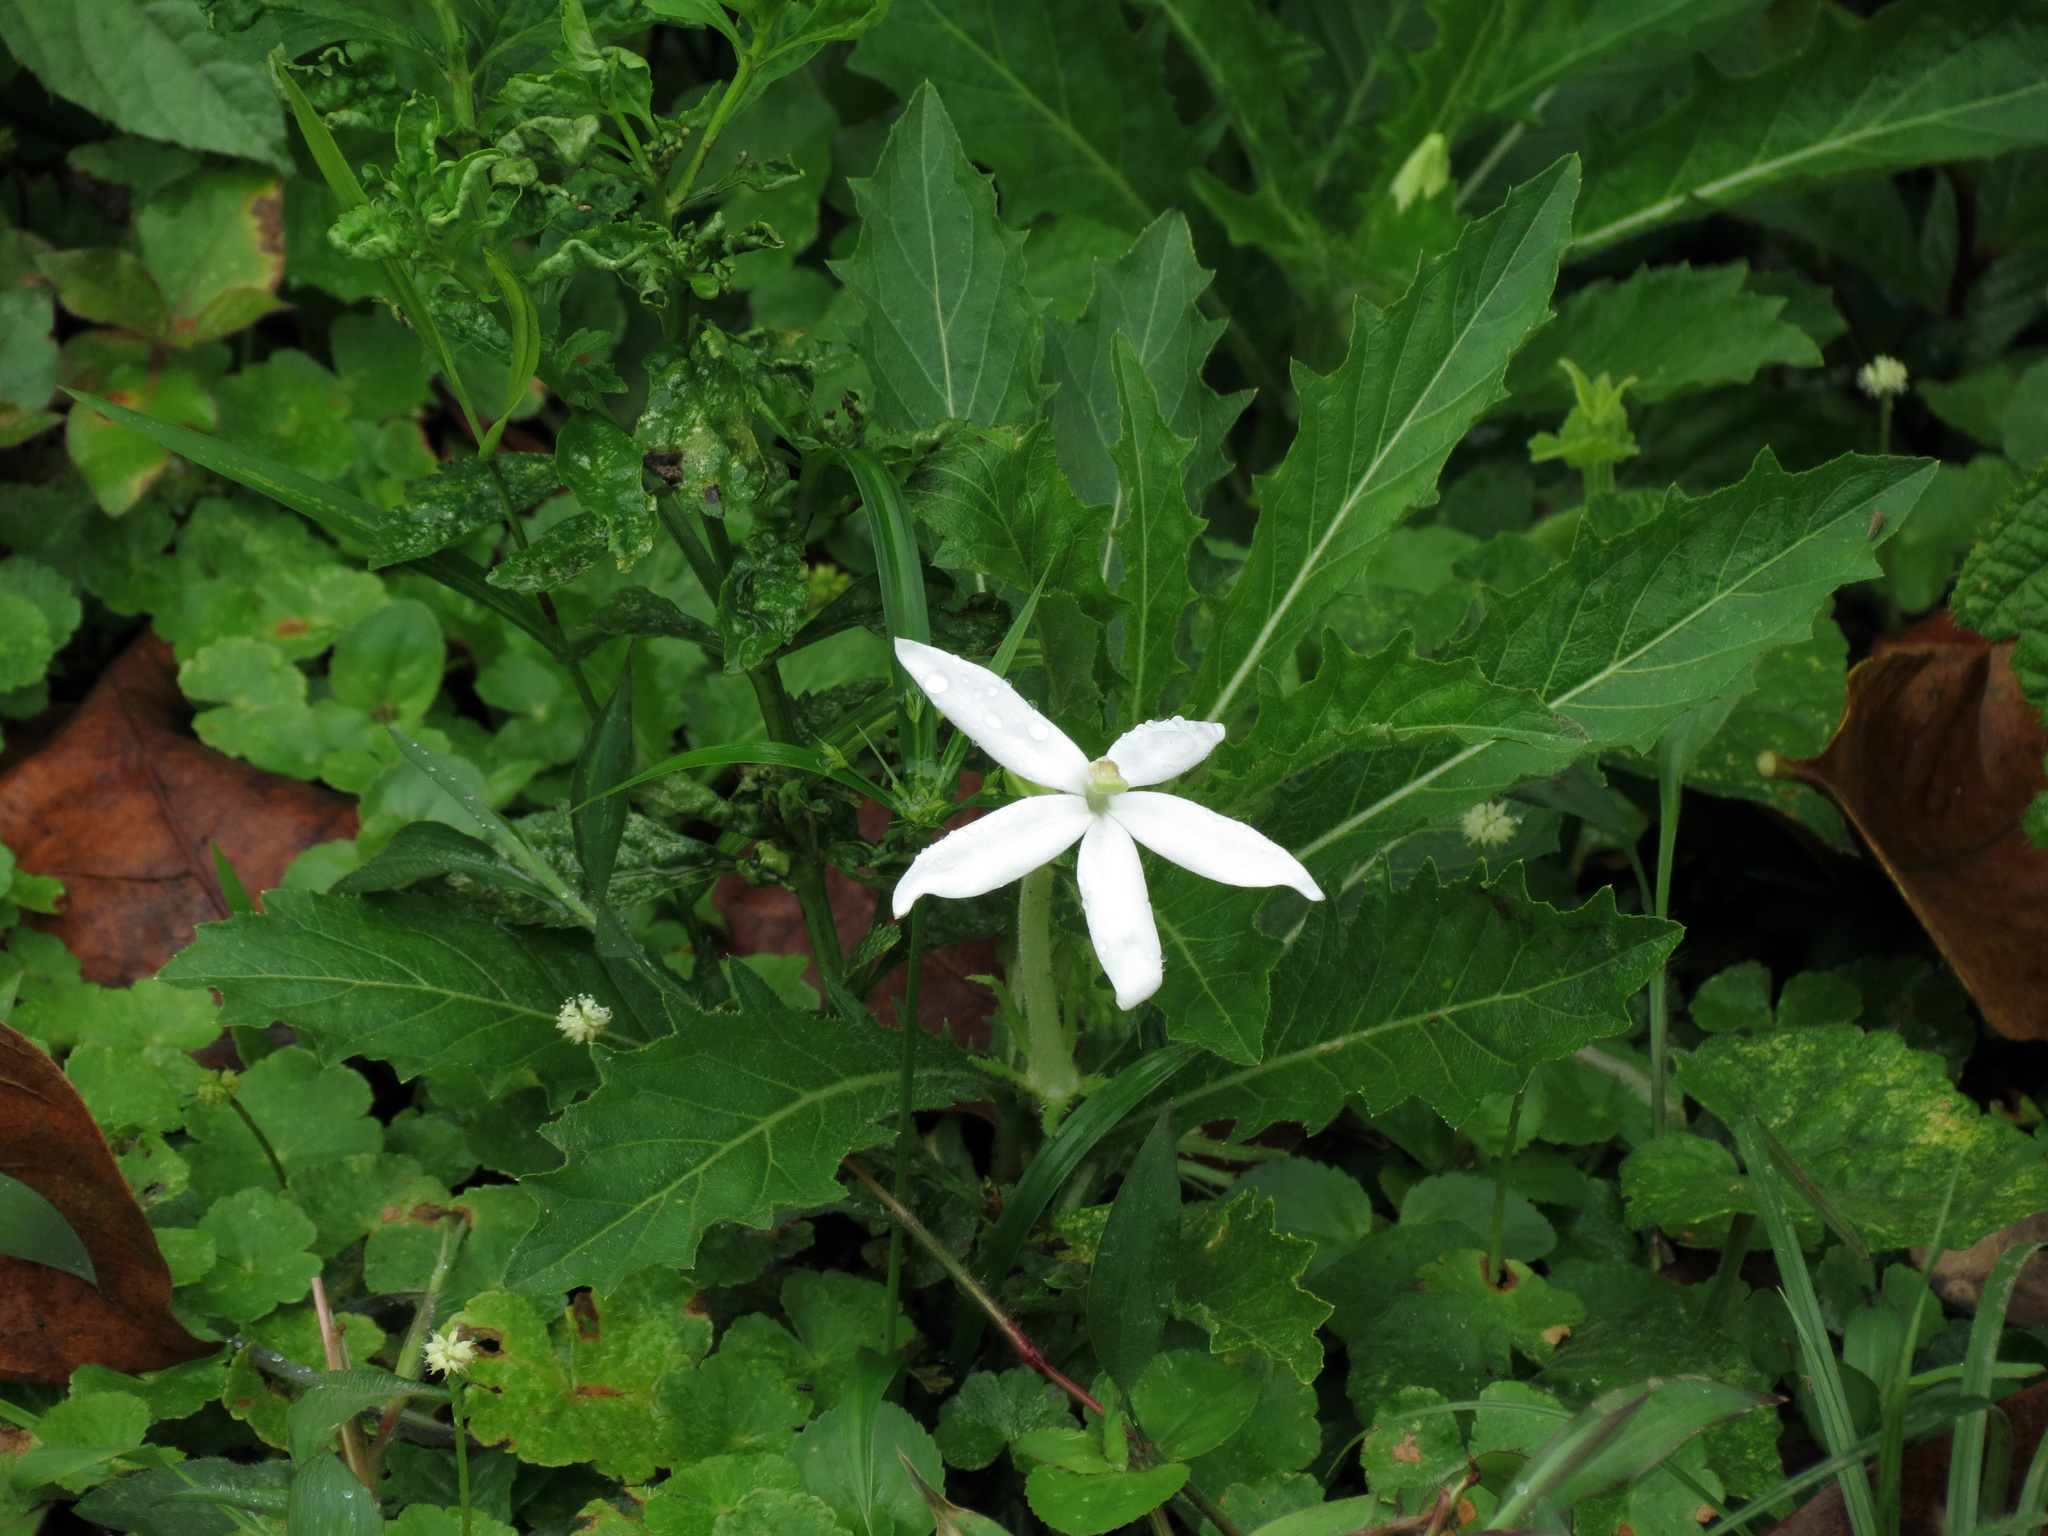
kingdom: Plantae
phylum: Tracheophyta
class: Magnoliopsida
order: Asterales
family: Campanulaceae
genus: Hippobroma
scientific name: Hippobroma longiflora
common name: Madamfate
